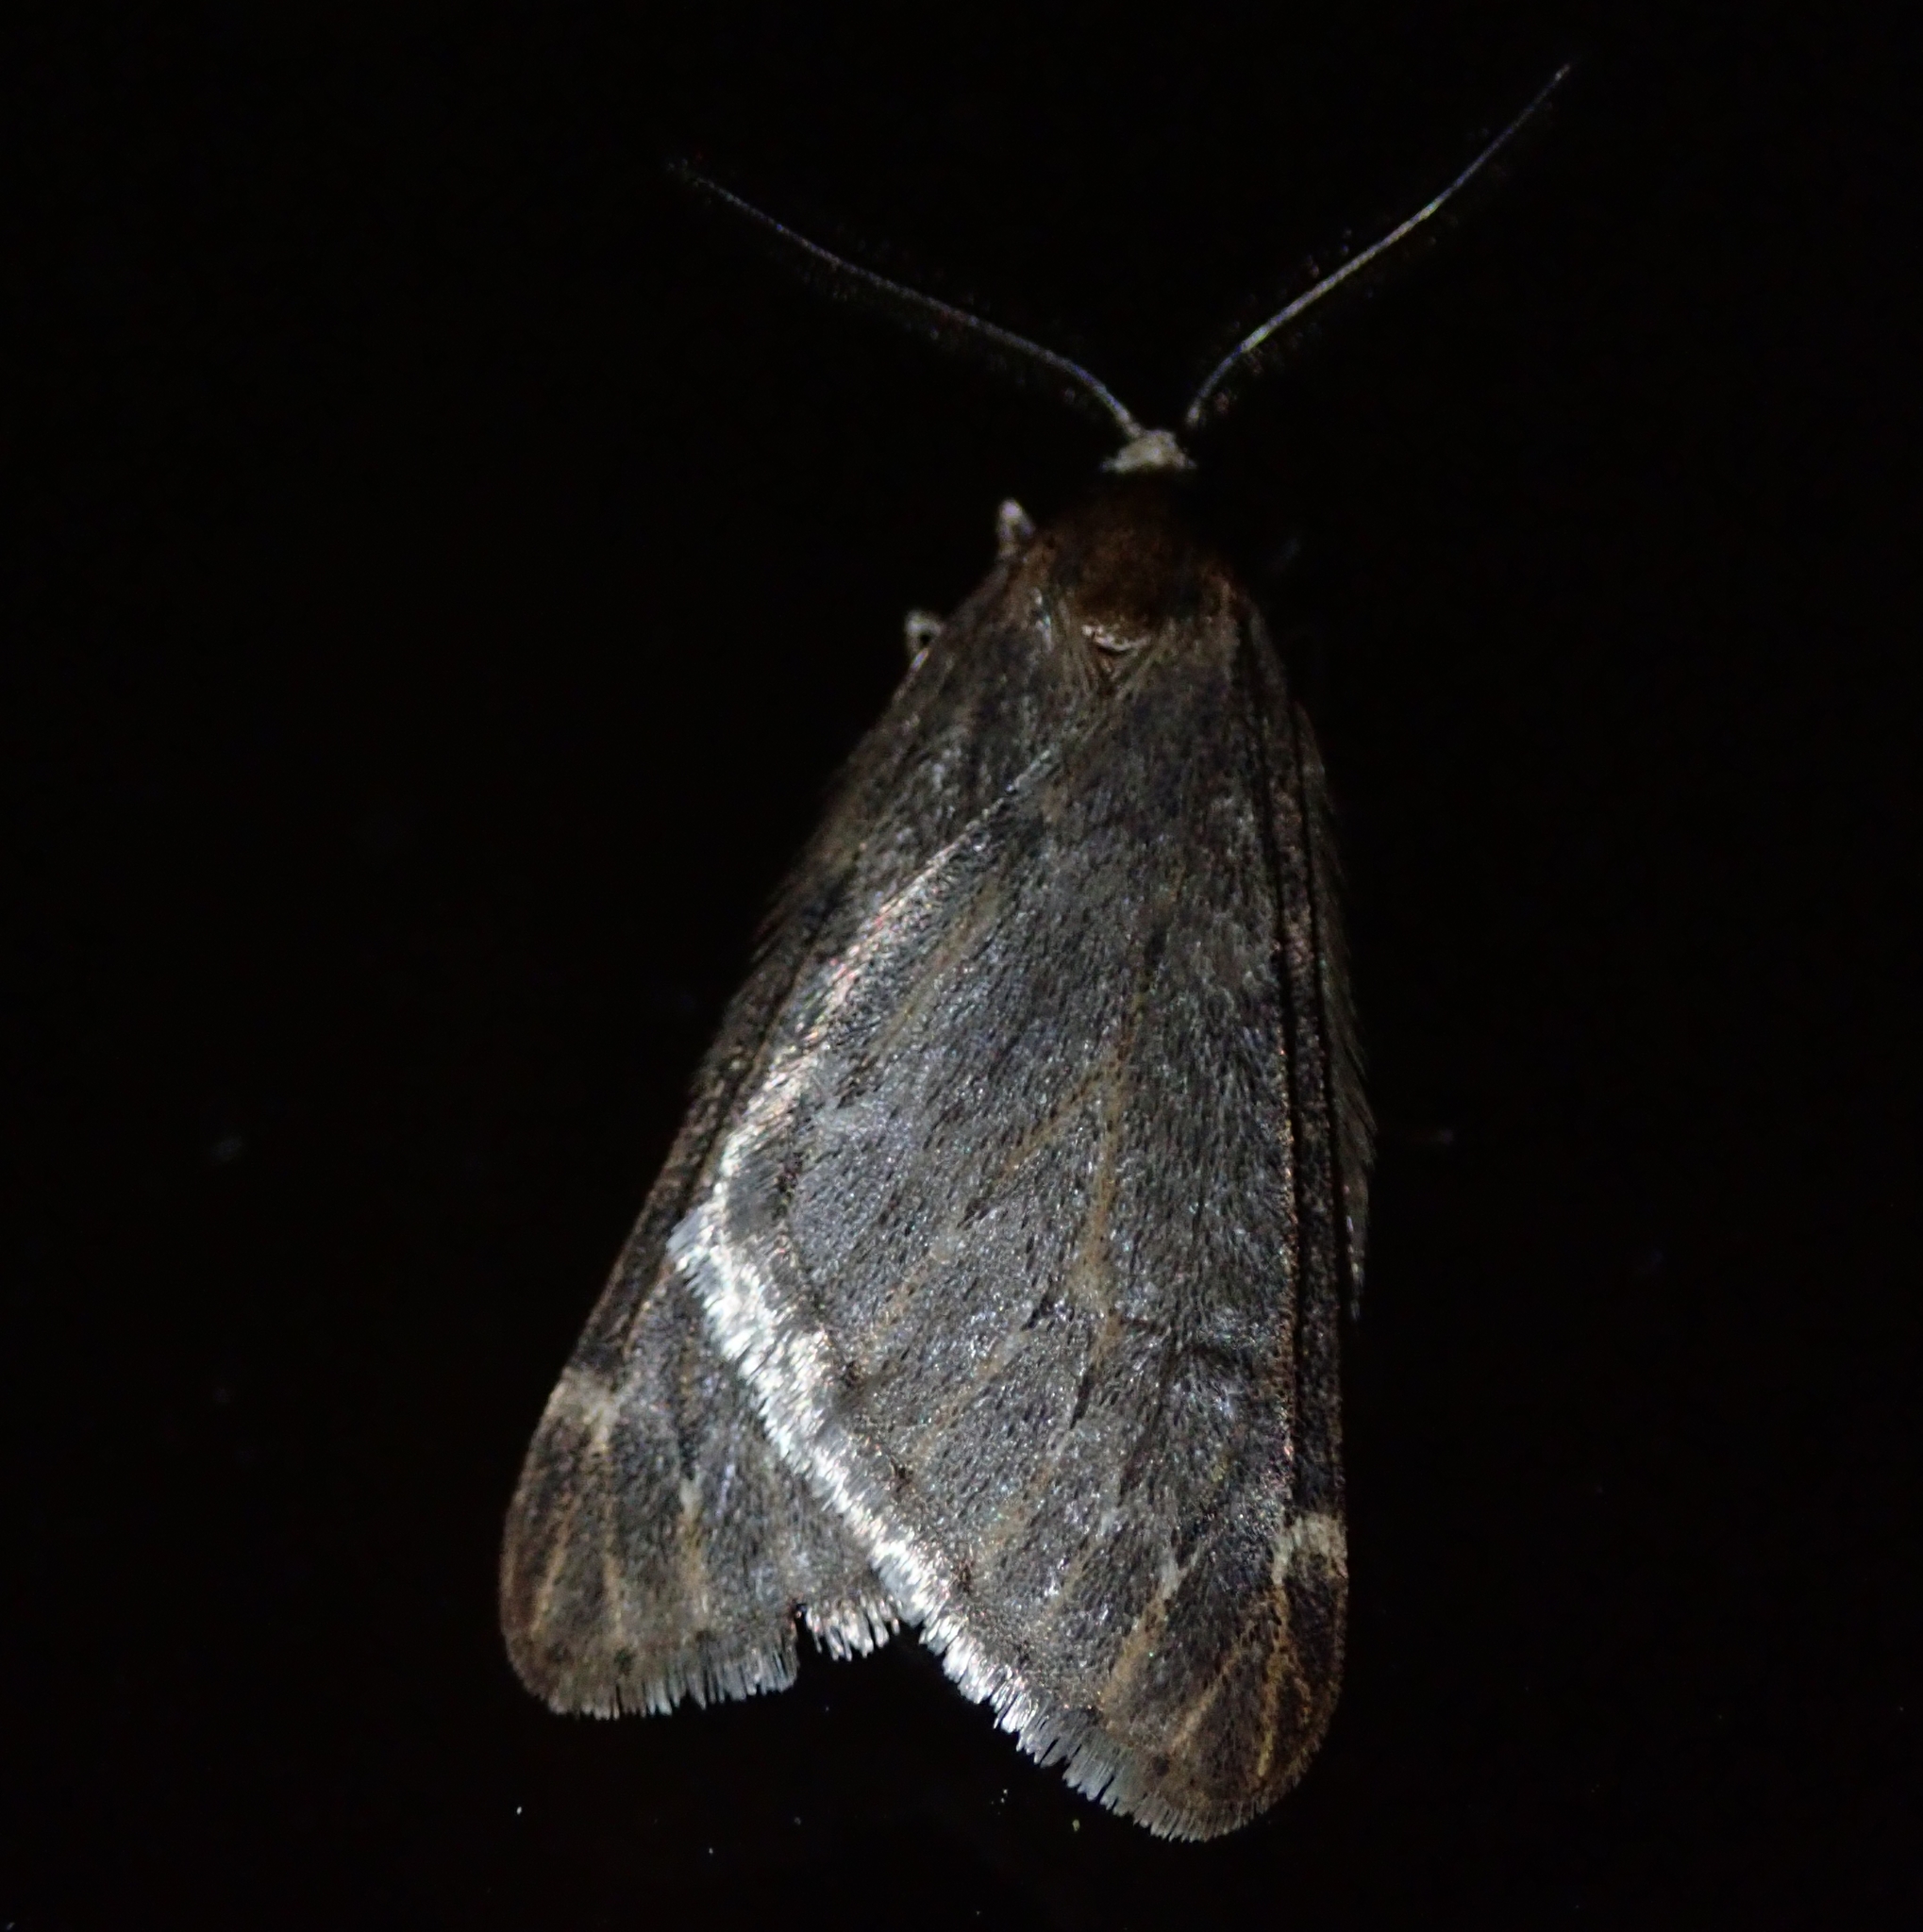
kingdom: Animalia
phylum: Arthropoda
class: Insecta
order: Lepidoptera
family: Geometridae
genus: Alsophila
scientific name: Alsophila aescularia
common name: March moth
